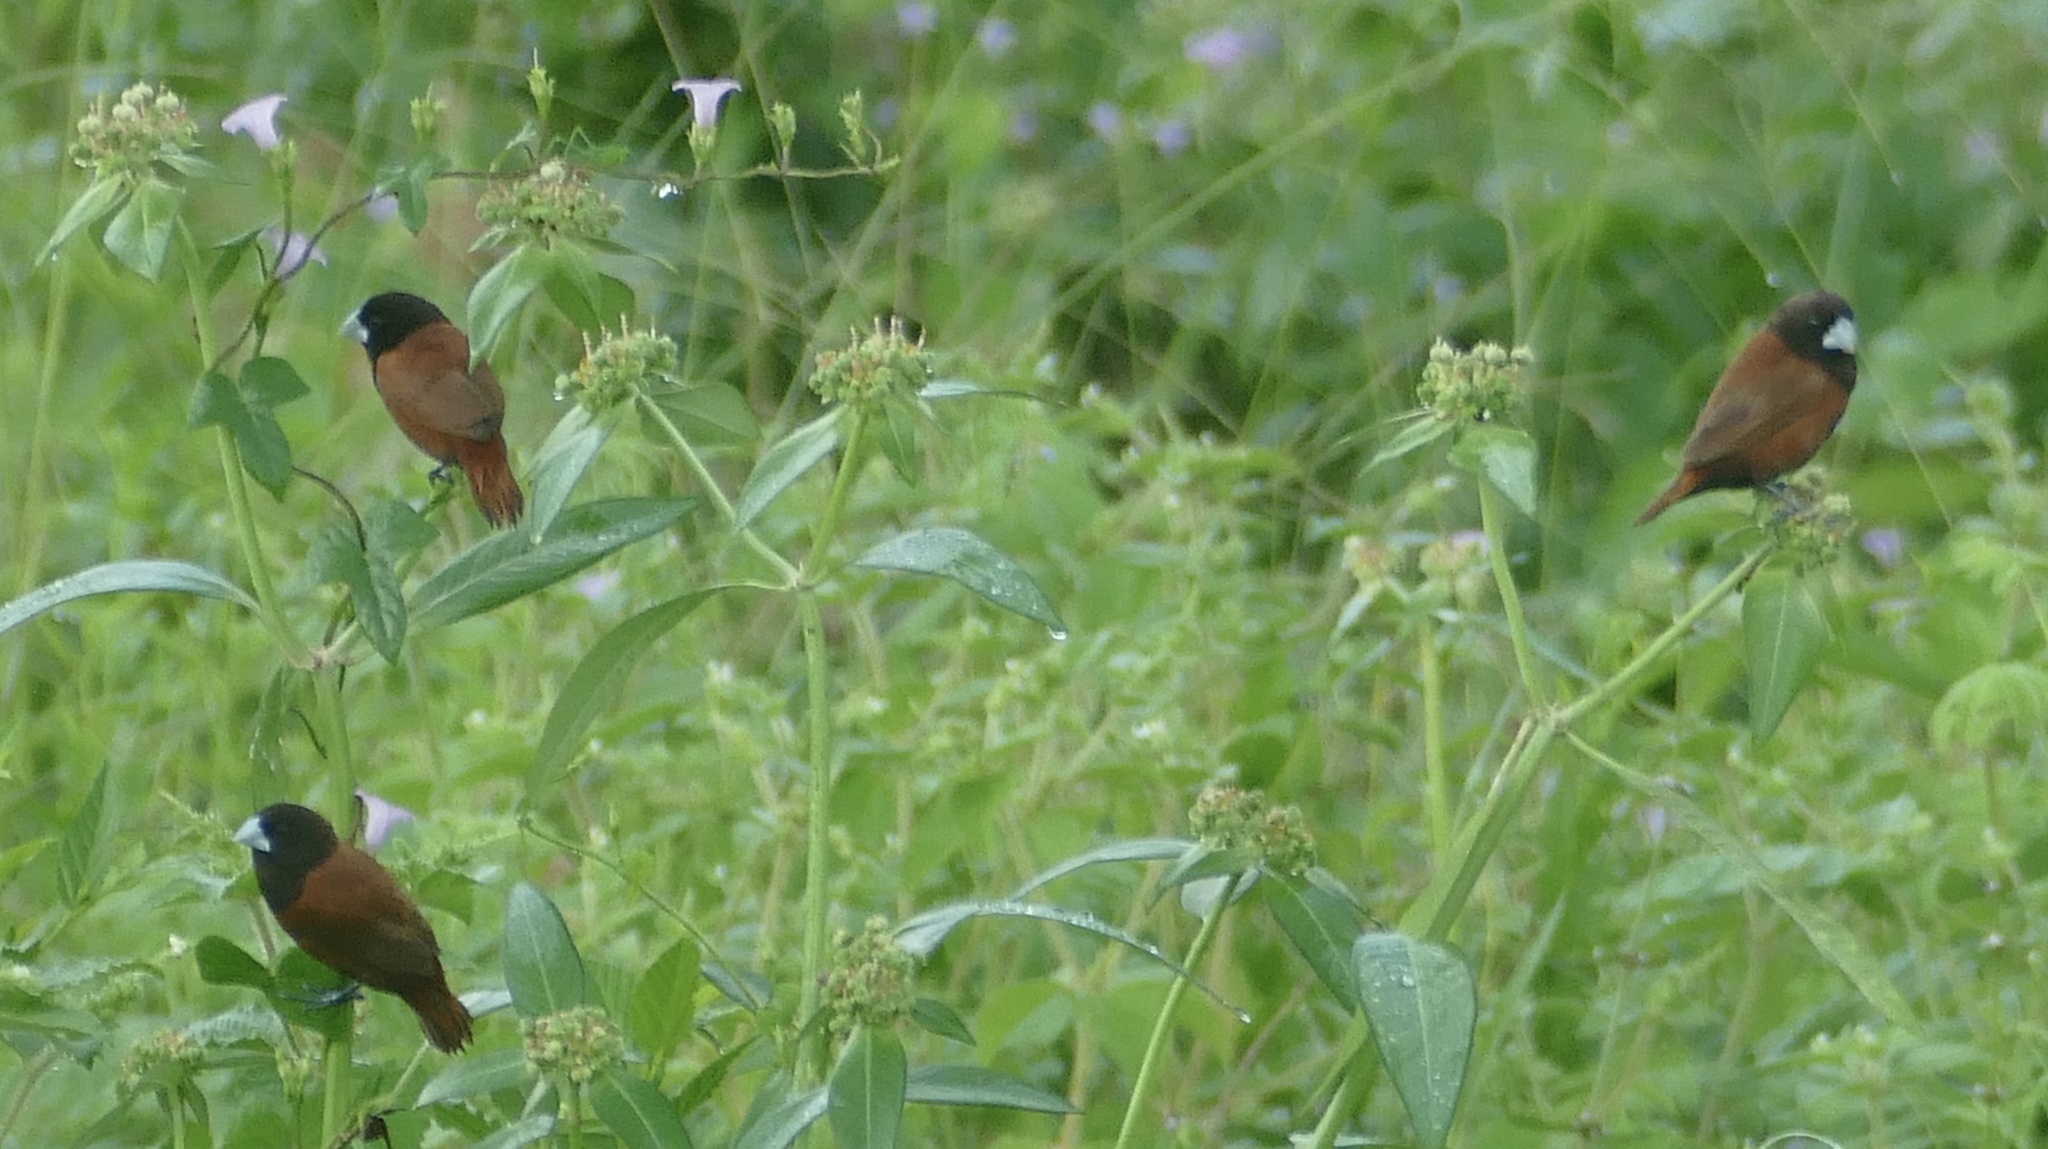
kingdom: Animalia
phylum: Chordata
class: Aves
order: Passeriformes
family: Estrildidae
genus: Lonchura
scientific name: Lonchura atricapilla
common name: Chestnut munia
